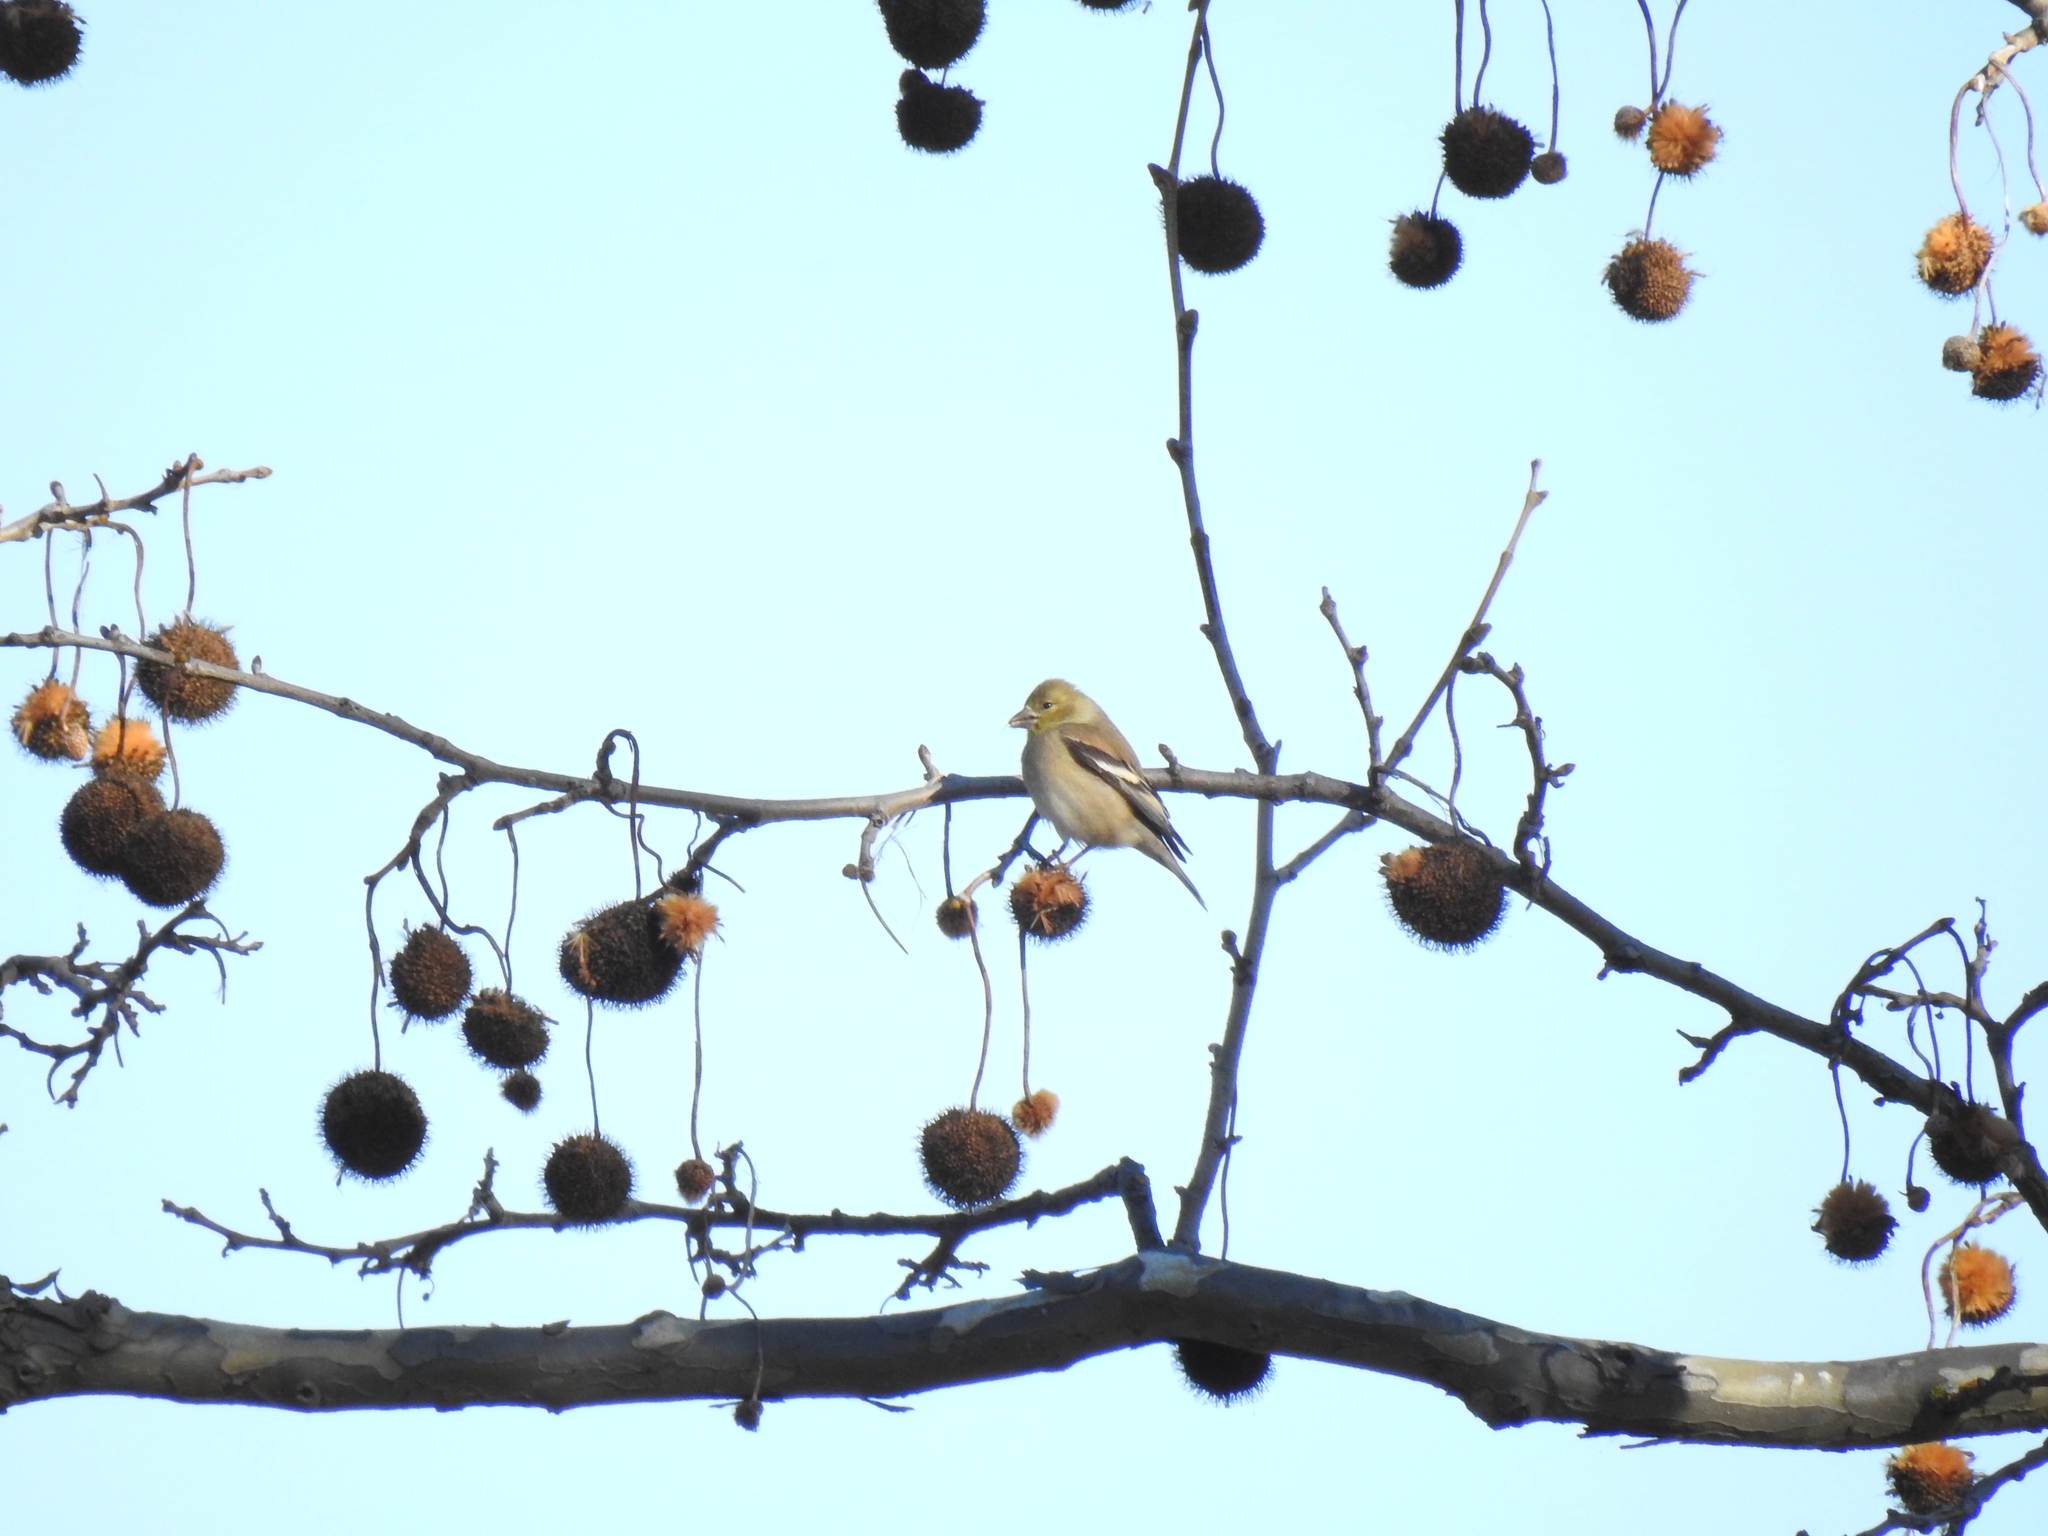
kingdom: Animalia
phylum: Chordata
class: Aves
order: Passeriformes
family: Fringillidae
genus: Spinus
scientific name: Spinus tristis
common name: American goldfinch
